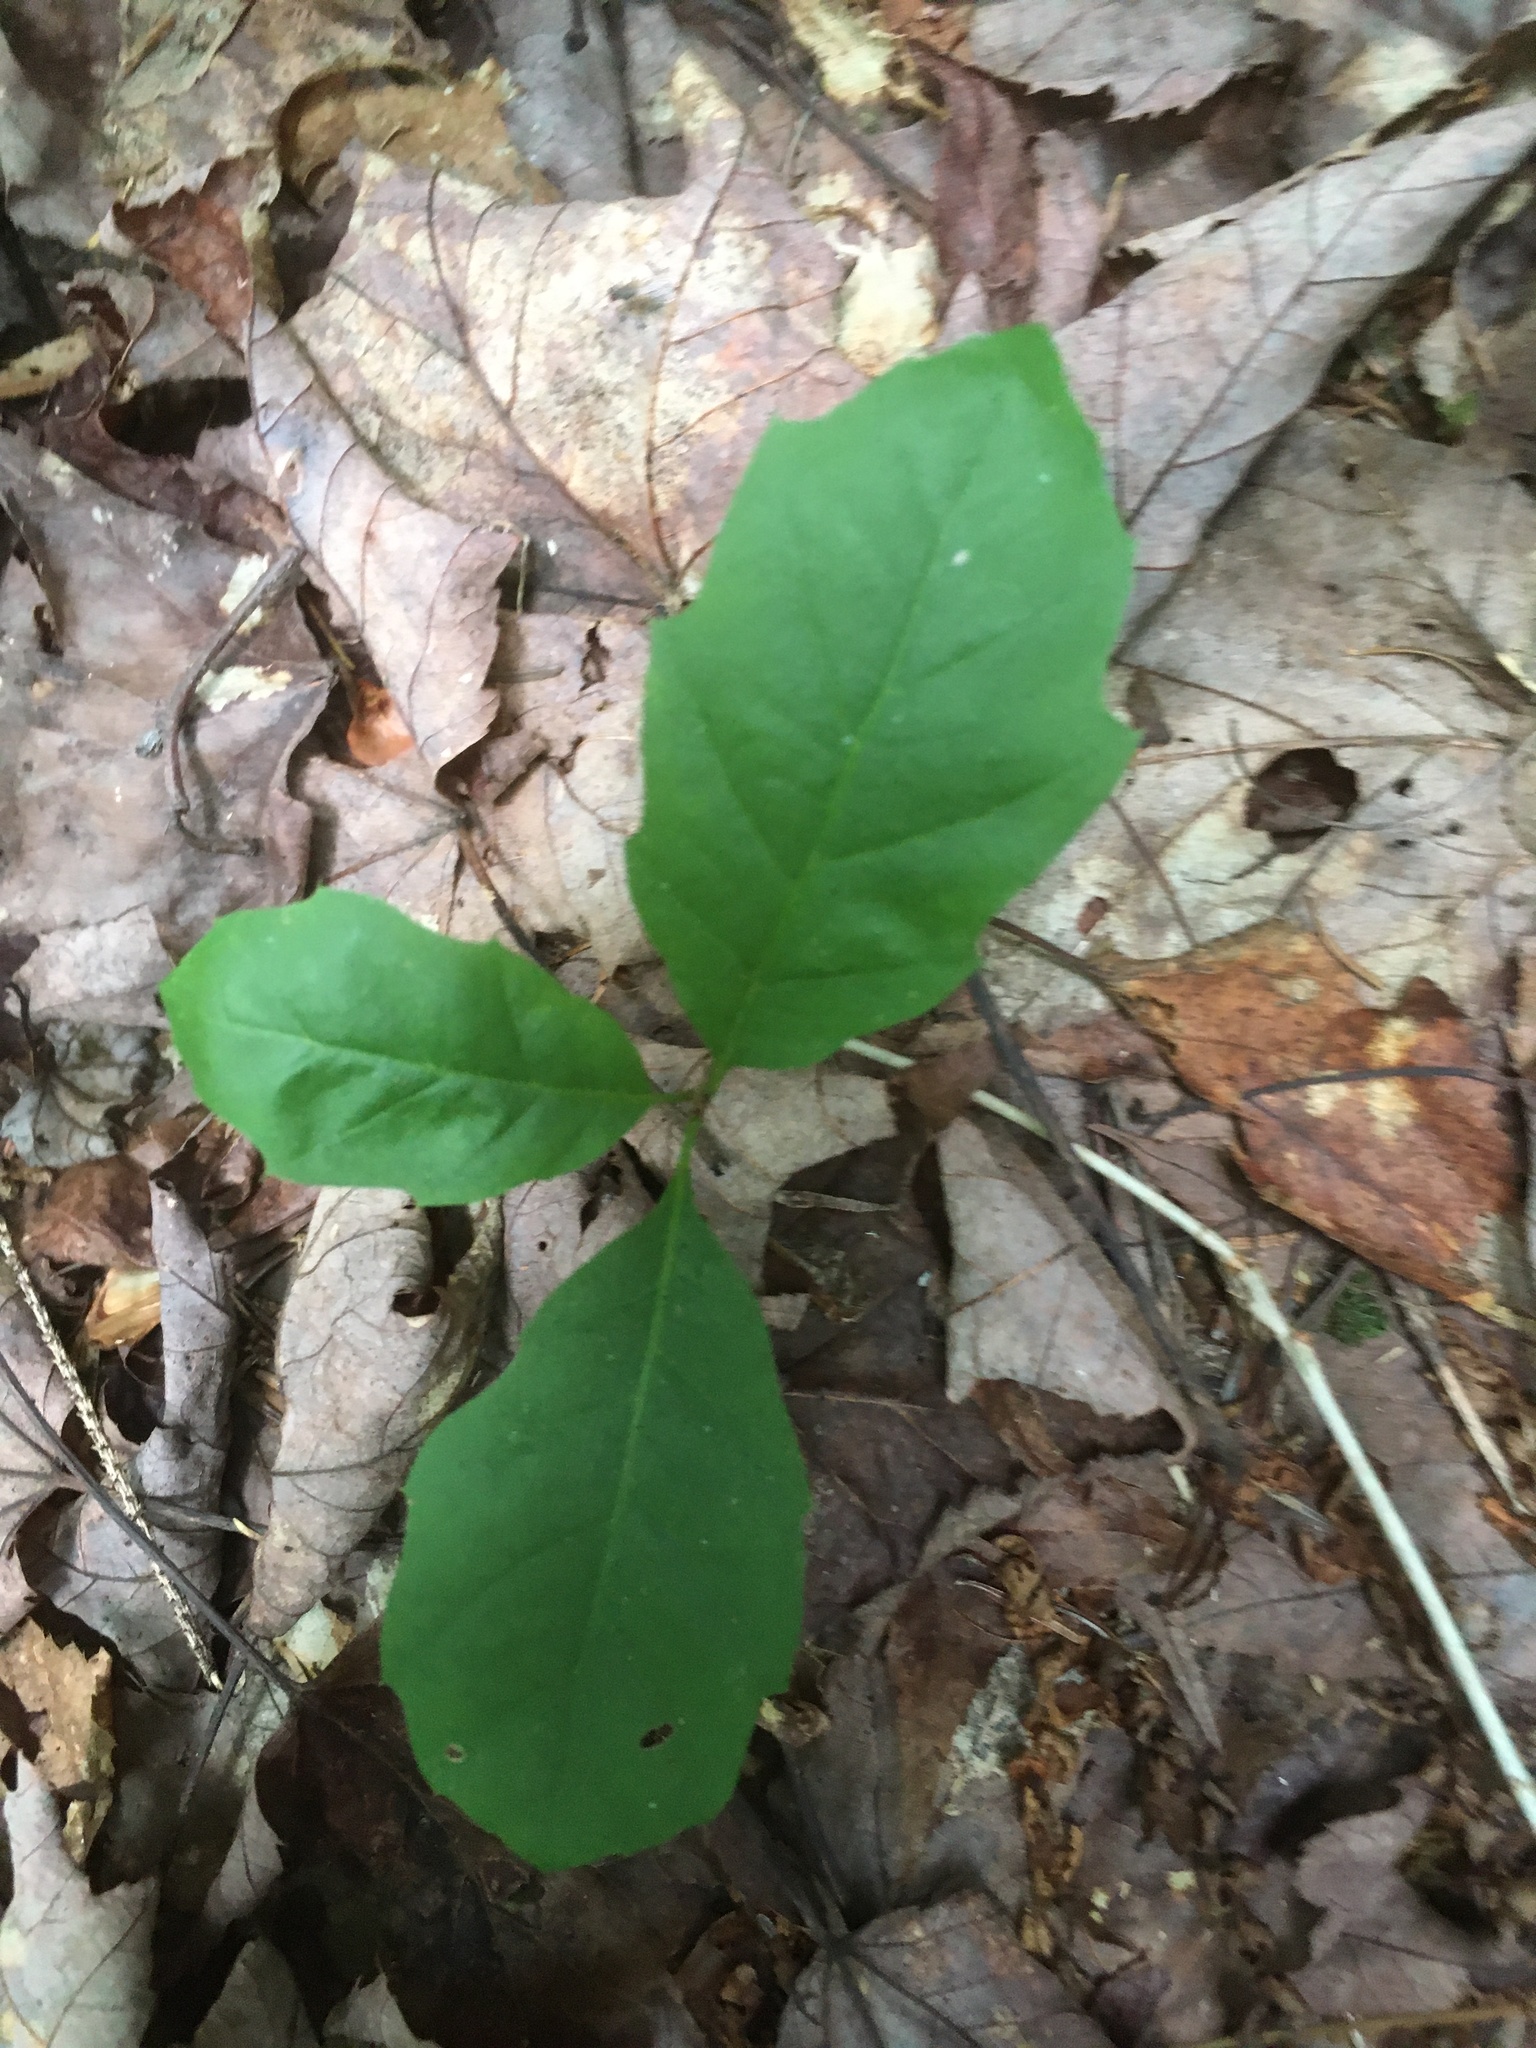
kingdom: Plantae
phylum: Tracheophyta
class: Magnoliopsida
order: Fagales
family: Fagaceae
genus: Quercus
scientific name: Quercus rubra
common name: Red oak
